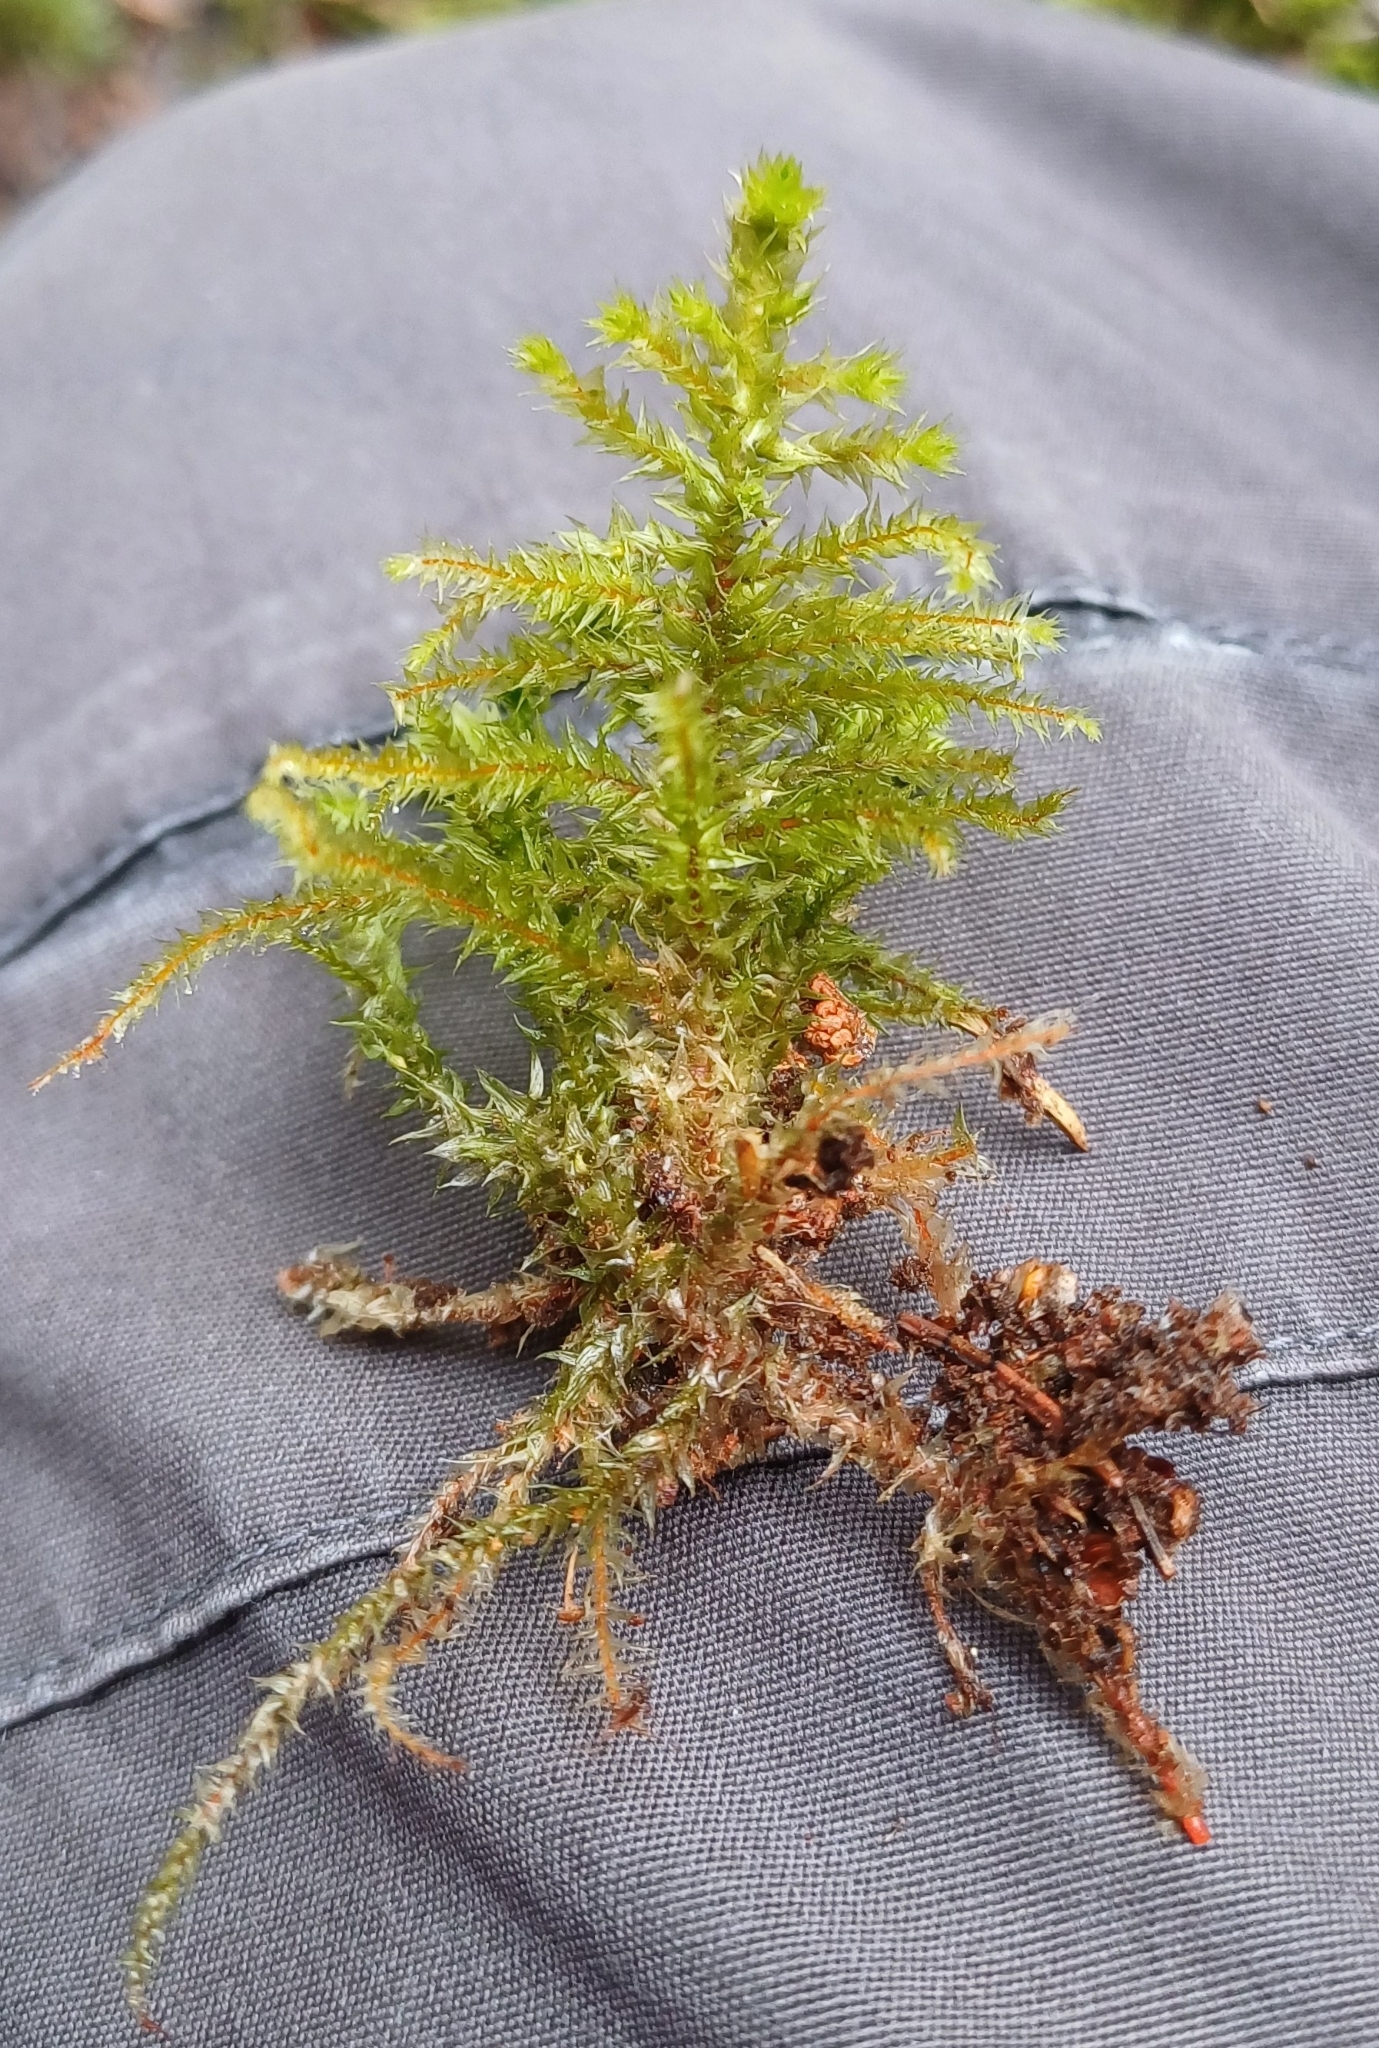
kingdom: Plantae
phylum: Bryophyta
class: Bryopsida
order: Hypnales
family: Hylocomiaceae
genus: Hylocomiadelphus
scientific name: Hylocomiadelphus triquetrus
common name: Rough goose neck moss
